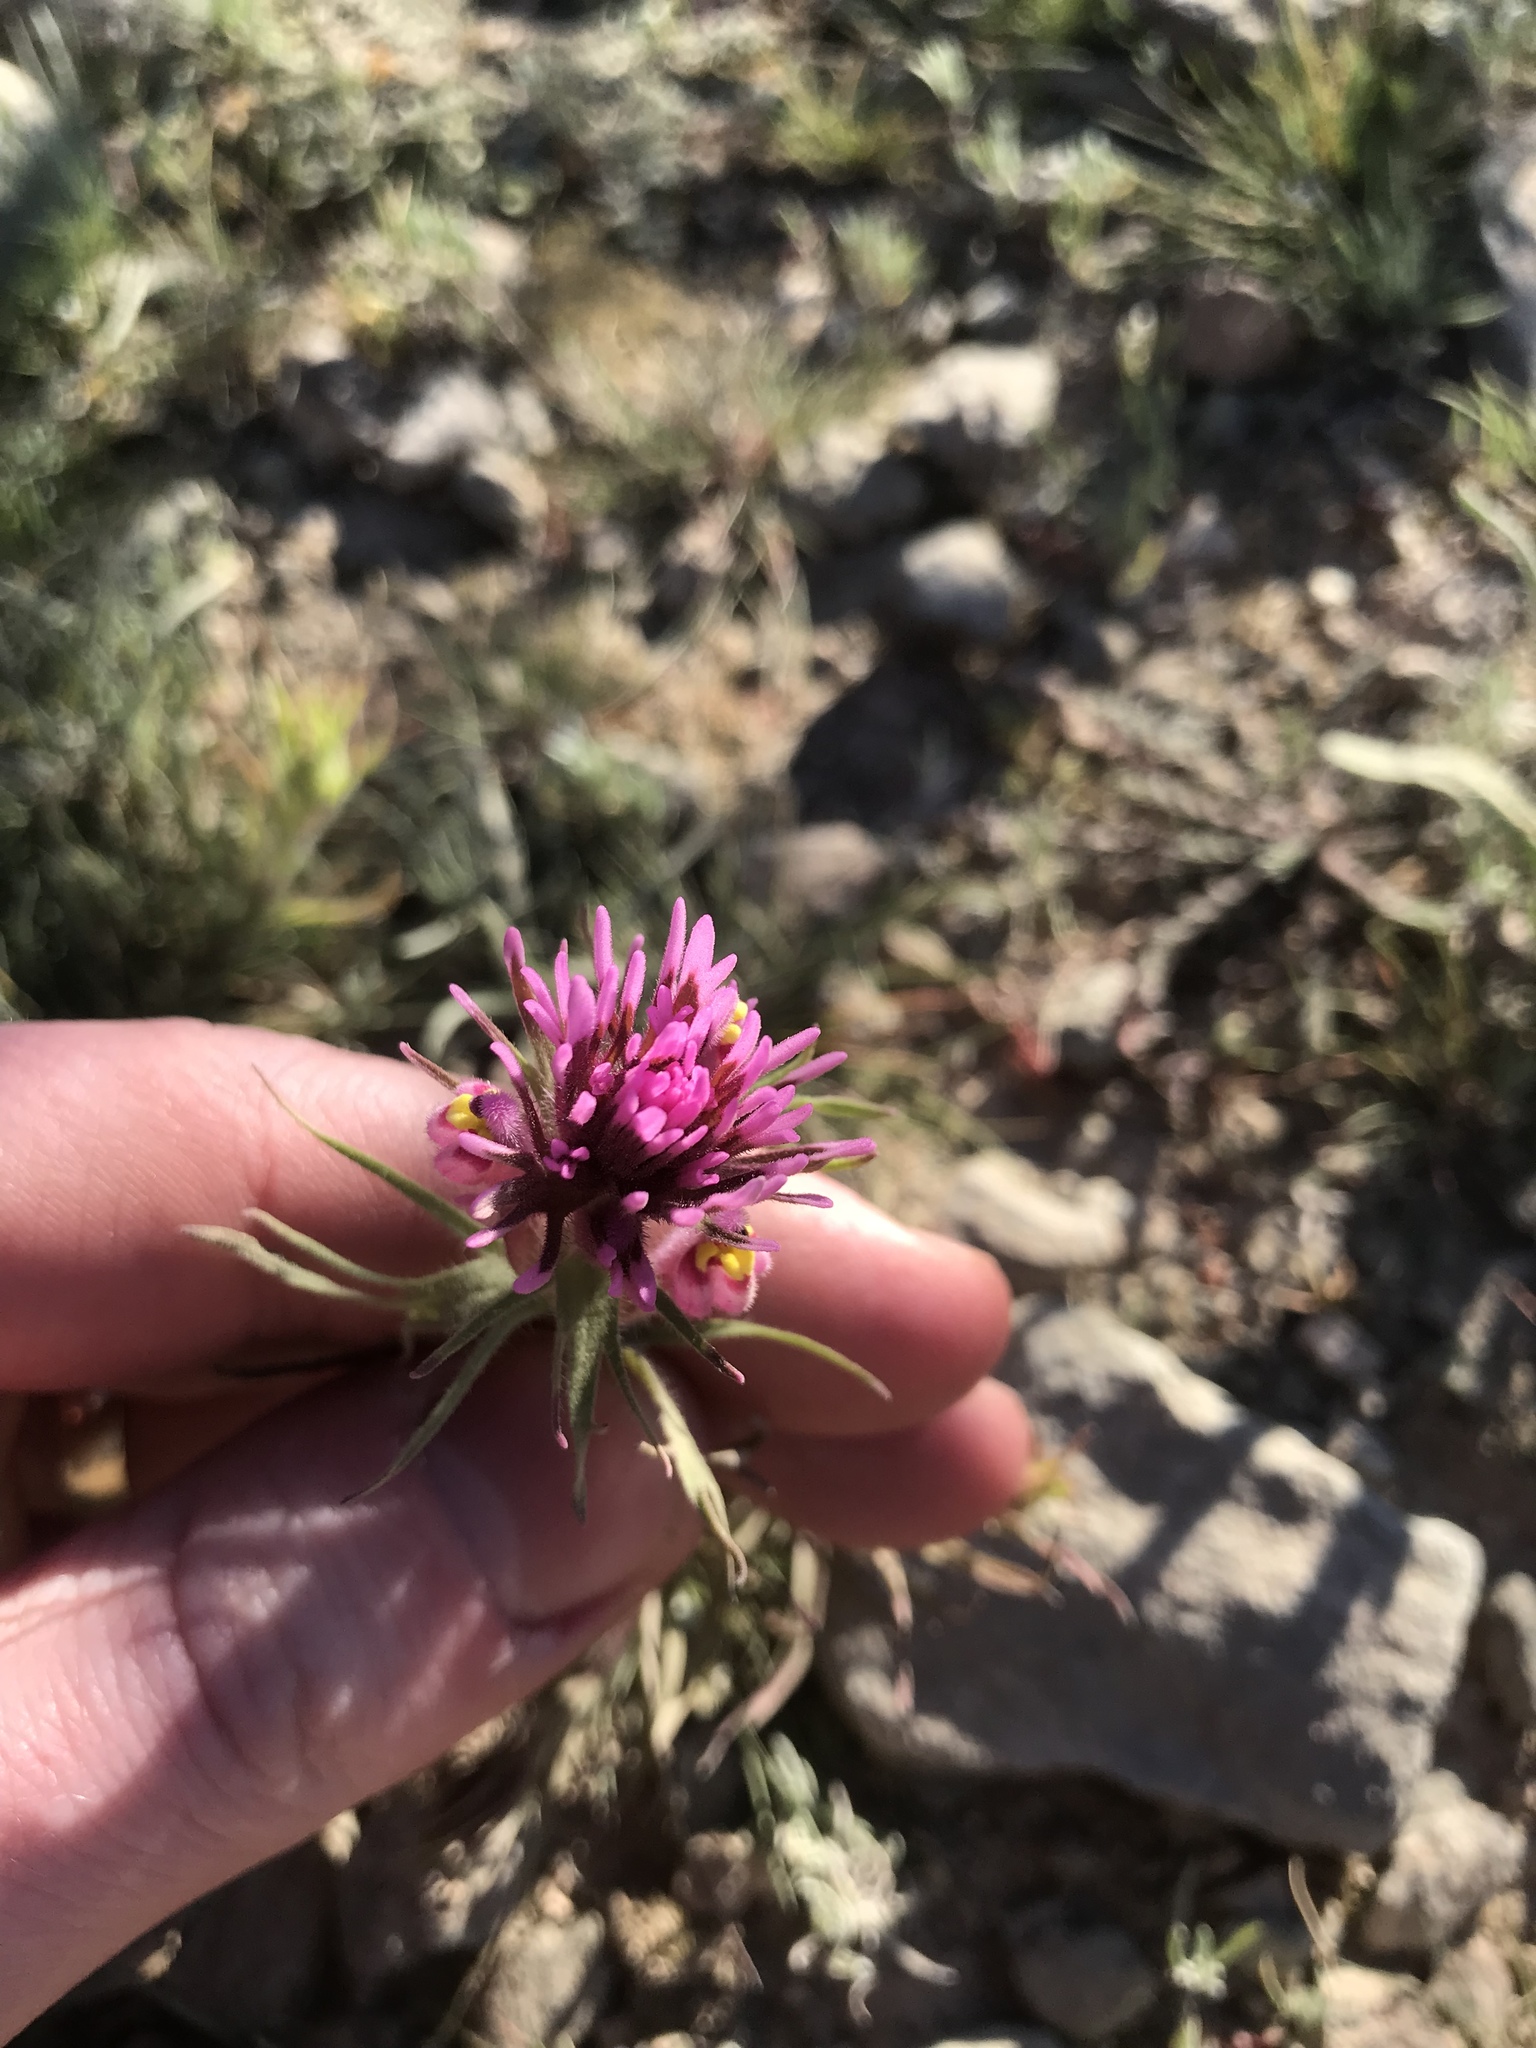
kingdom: Plantae
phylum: Tracheophyta
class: Magnoliopsida
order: Lamiales
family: Orobanchaceae
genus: Castilleja
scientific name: Castilleja exserta
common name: Purple owl-clover
